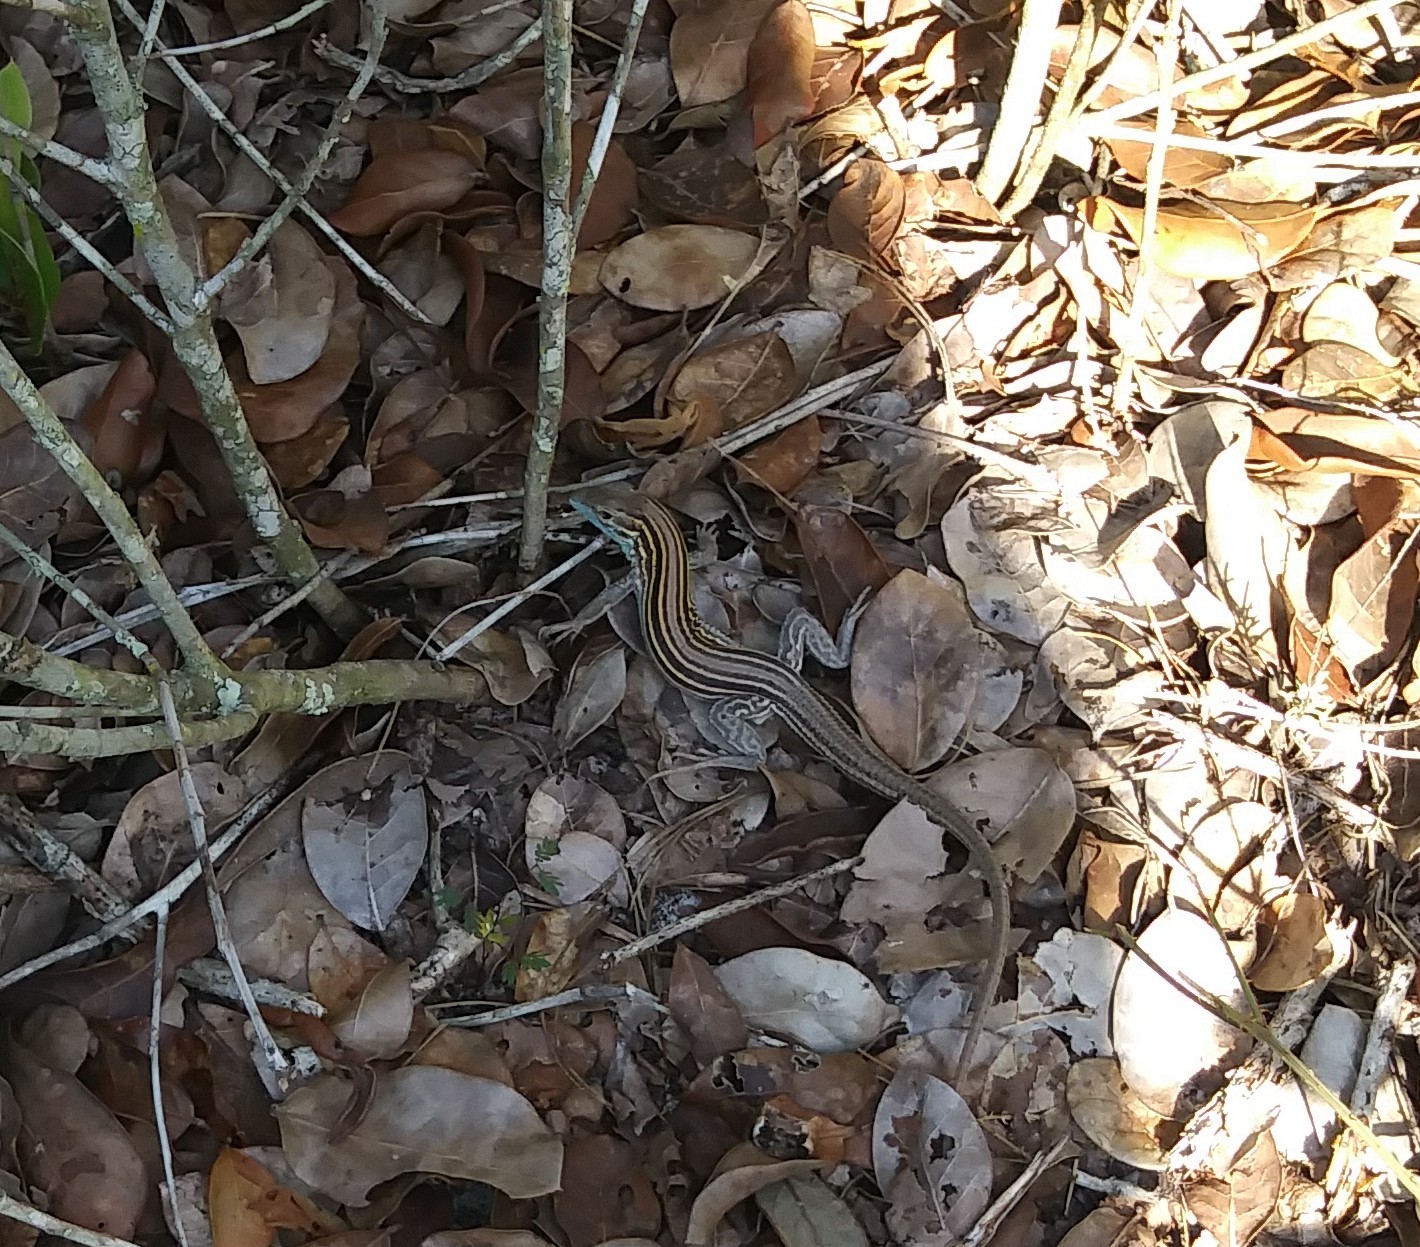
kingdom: Animalia
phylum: Chordata
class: Squamata
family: Teiidae
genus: Aspidoscelis
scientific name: Aspidoscelis sexlineatus
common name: Six-lined racerunner
